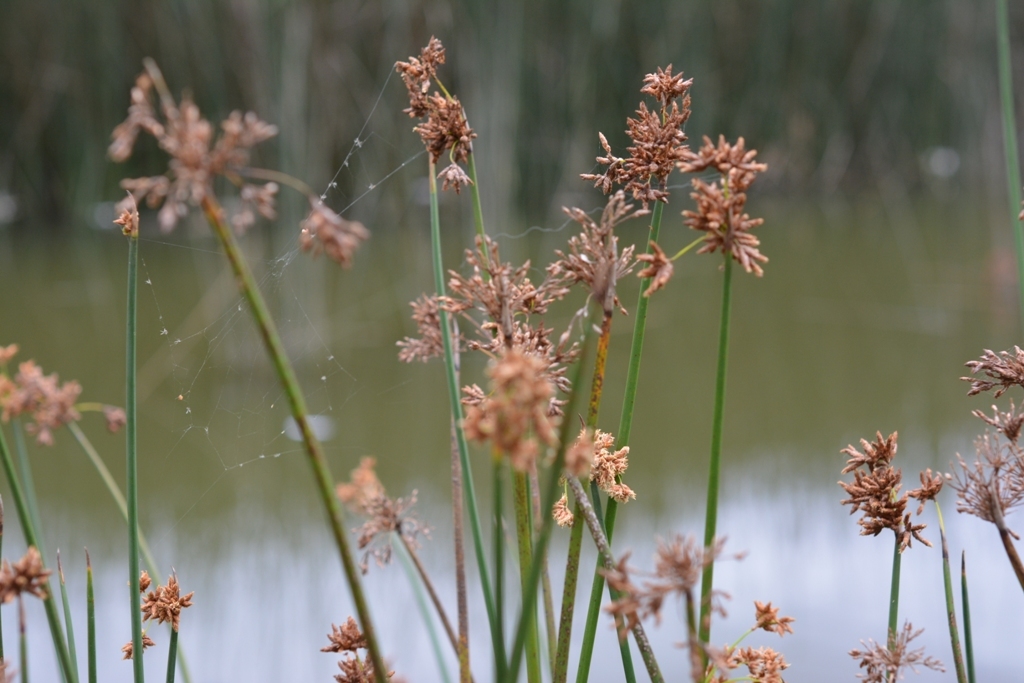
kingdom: Plantae
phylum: Tracheophyta
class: Liliopsida
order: Poales
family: Cyperaceae
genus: Schoenoplectus
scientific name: Schoenoplectus acutus
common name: Hardstem bulrush
